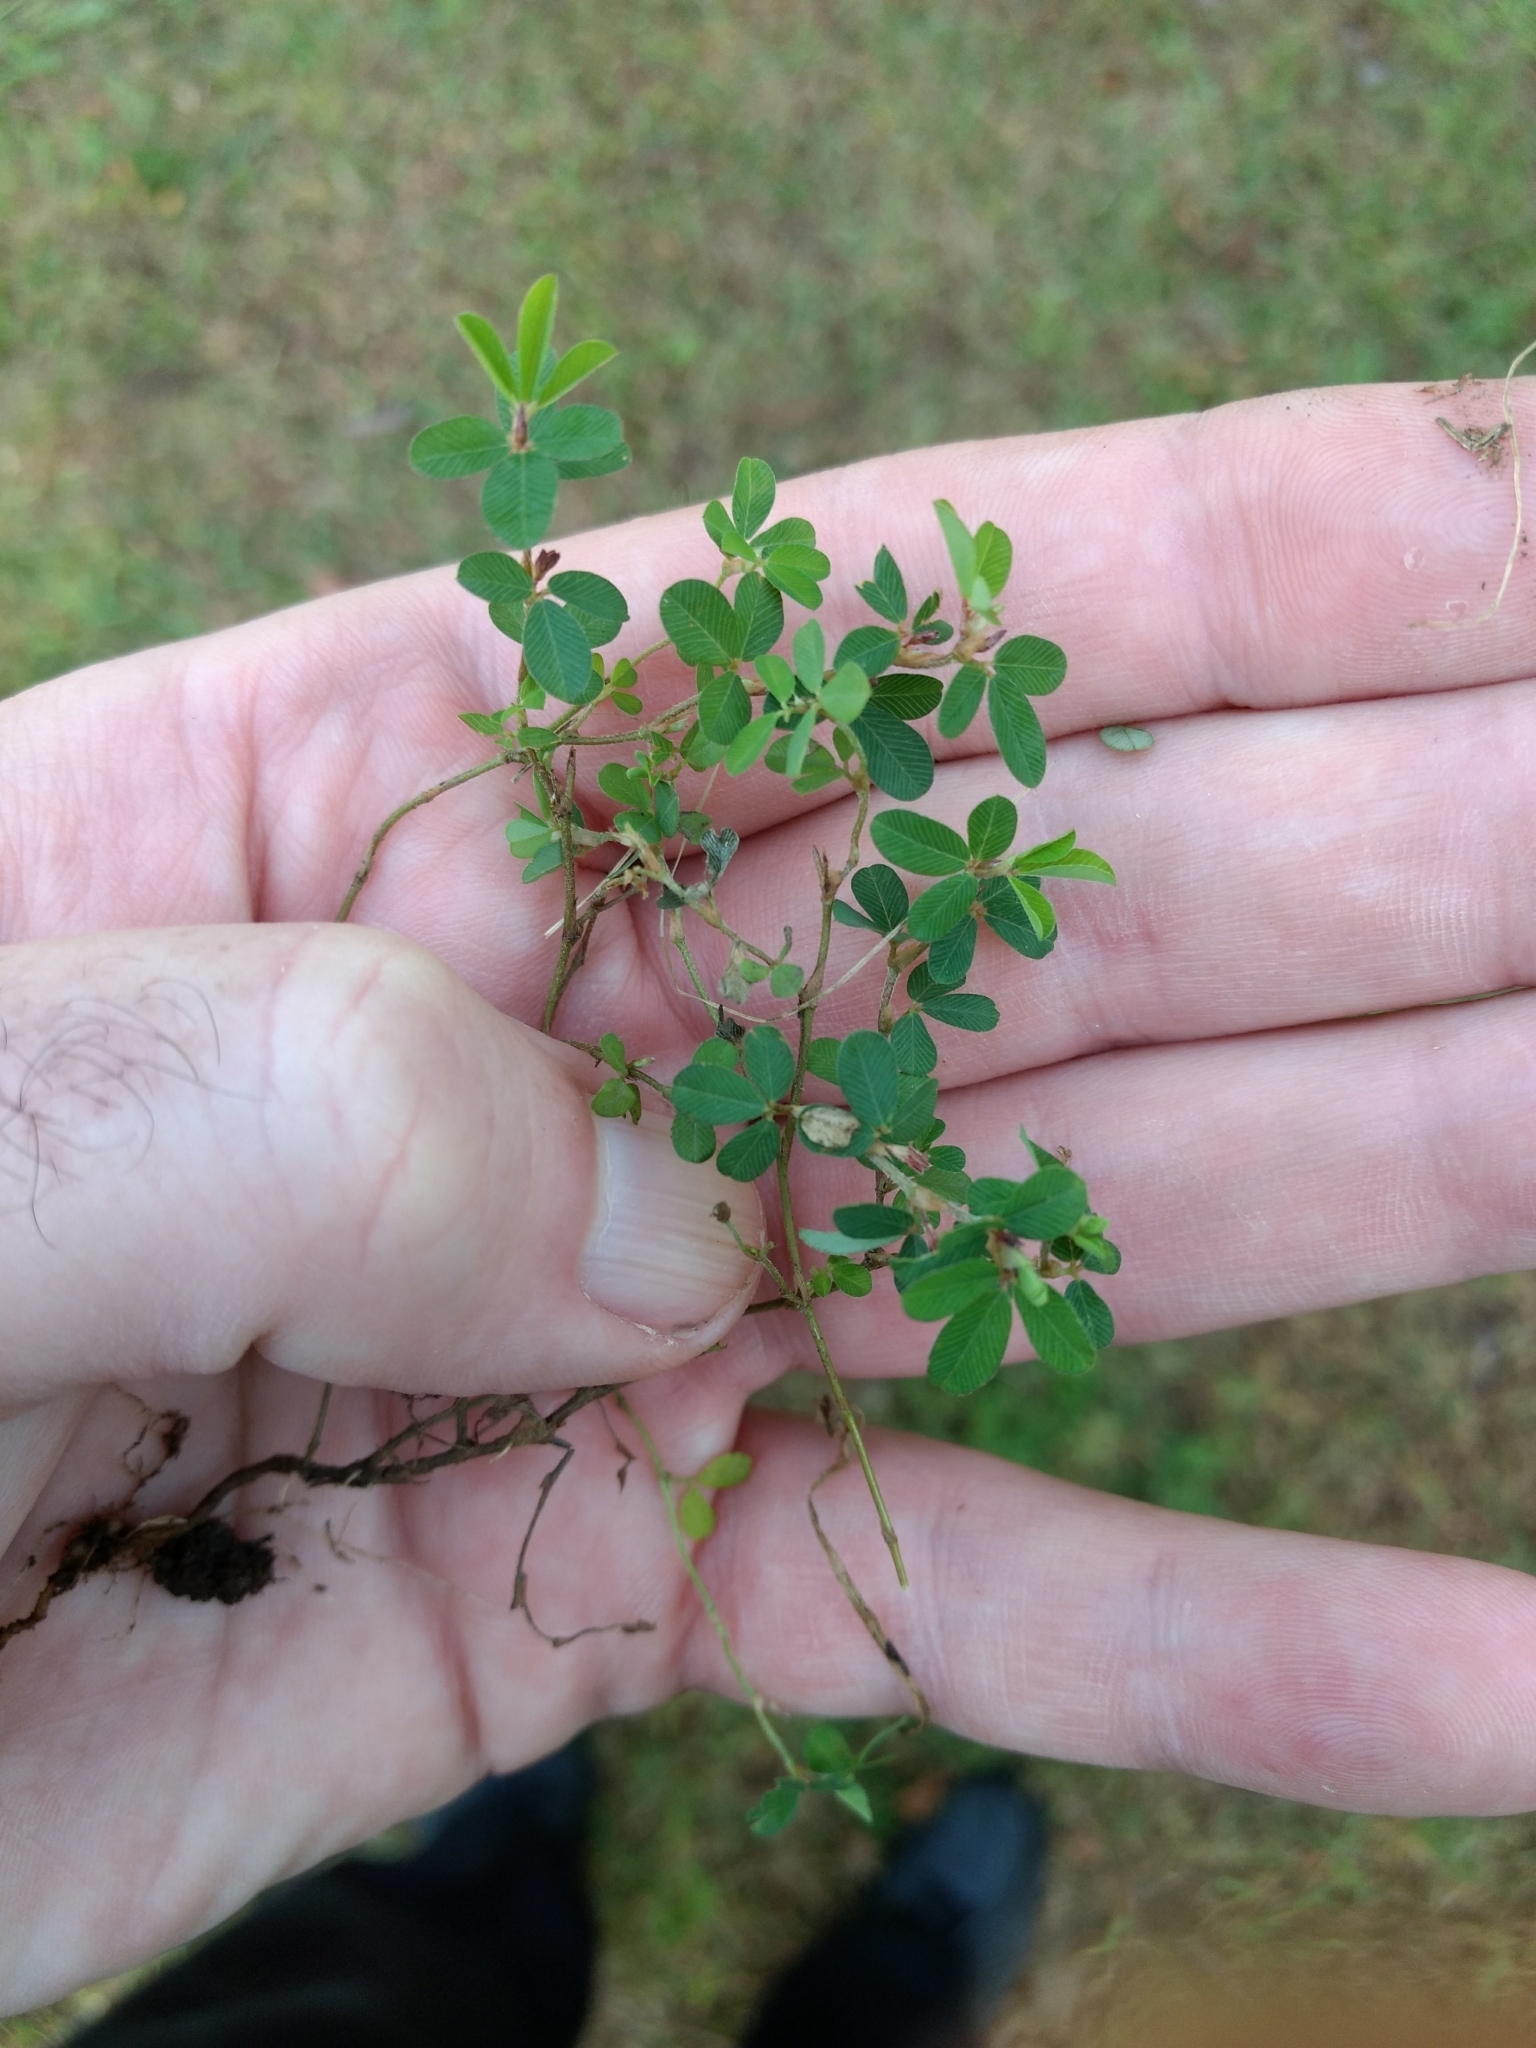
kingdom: Plantae
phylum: Tracheophyta
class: Magnoliopsida
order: Fabales
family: Fabaceae
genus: Kummerowia
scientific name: Kummerowia striata
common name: Japanese clover
